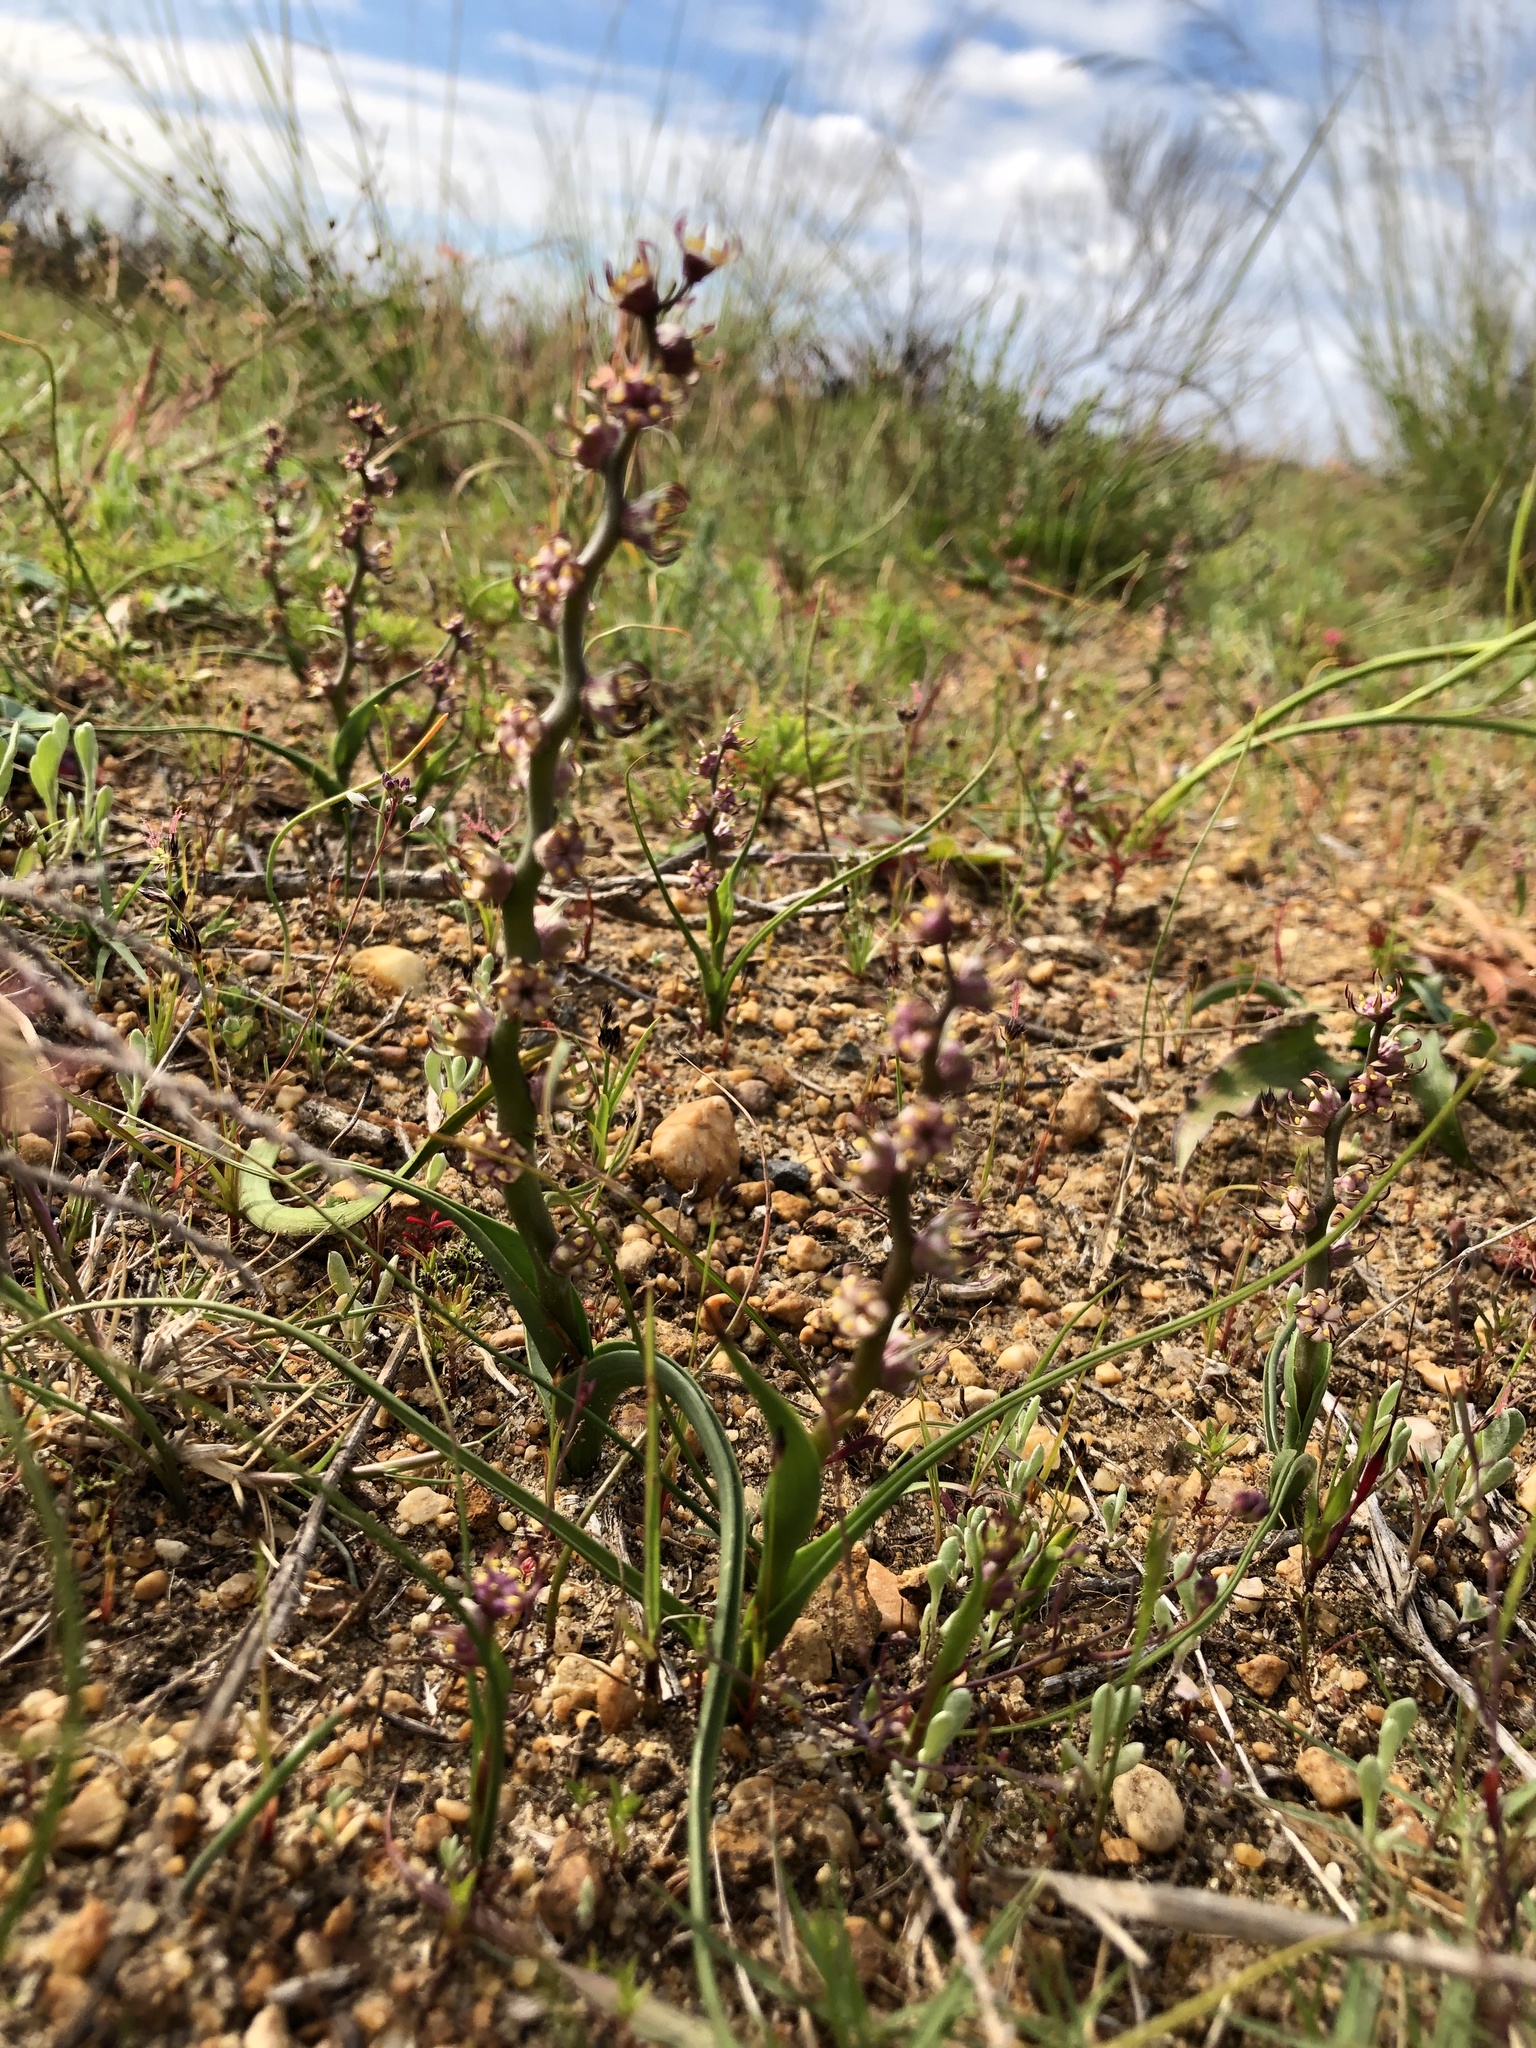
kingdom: Plantae
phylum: Tracheophyta
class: Liliopsida
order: Liliales
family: Colchicaceae
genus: Wurmbea
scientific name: Wurmbea monopetala
